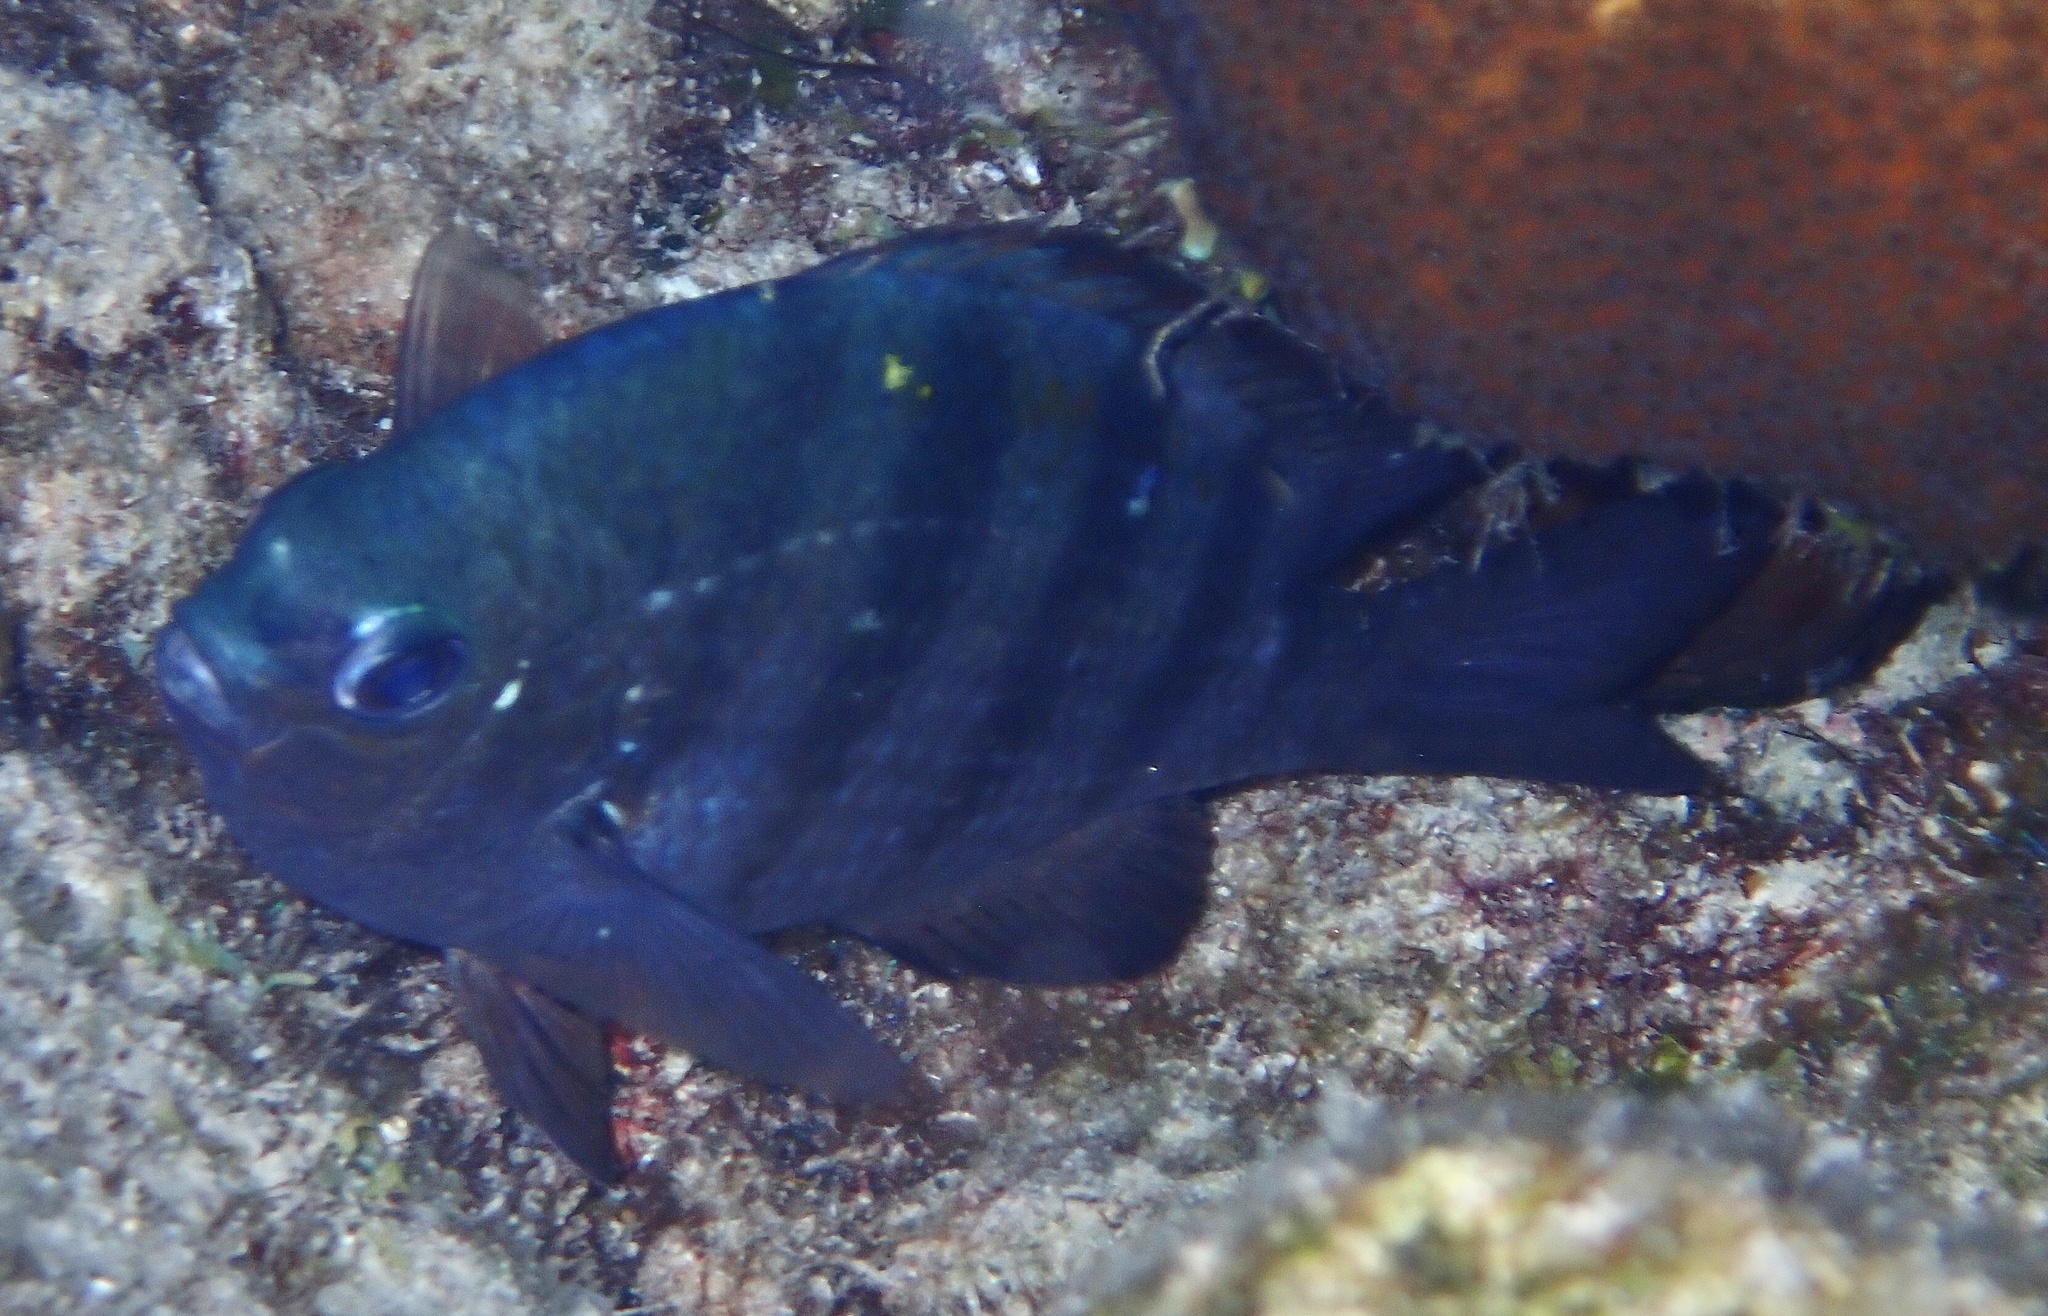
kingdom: Animalia
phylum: Chordata
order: Perciformes
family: Pomacentridae
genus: Abudefduf
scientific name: Abudefduf saxatilis
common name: Sergeant major
